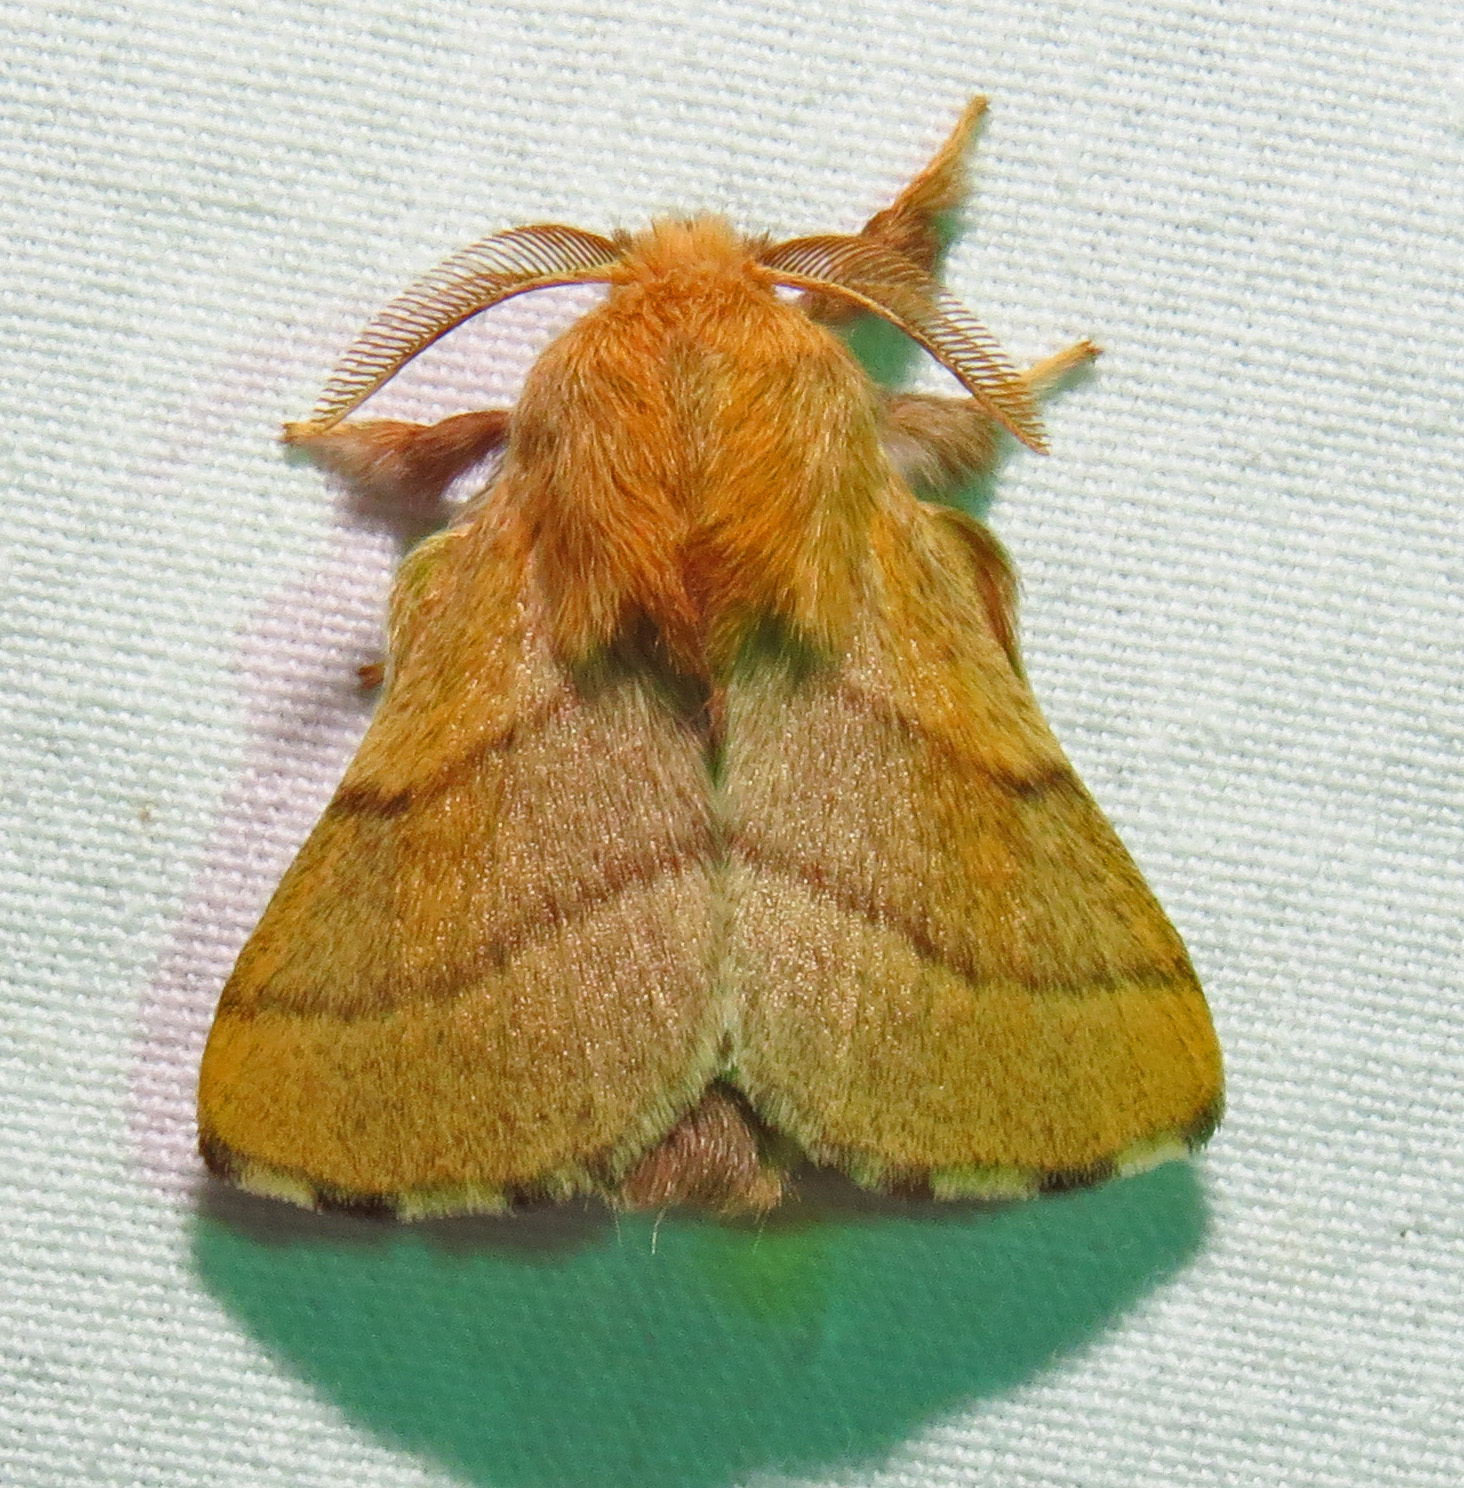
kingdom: Animalia
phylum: Arthropoda
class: Insecta
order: Lepidoptera
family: Lasiocampidae
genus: Malacosoma
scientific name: Malacosoma disstria
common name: Forest tent caterpillar
